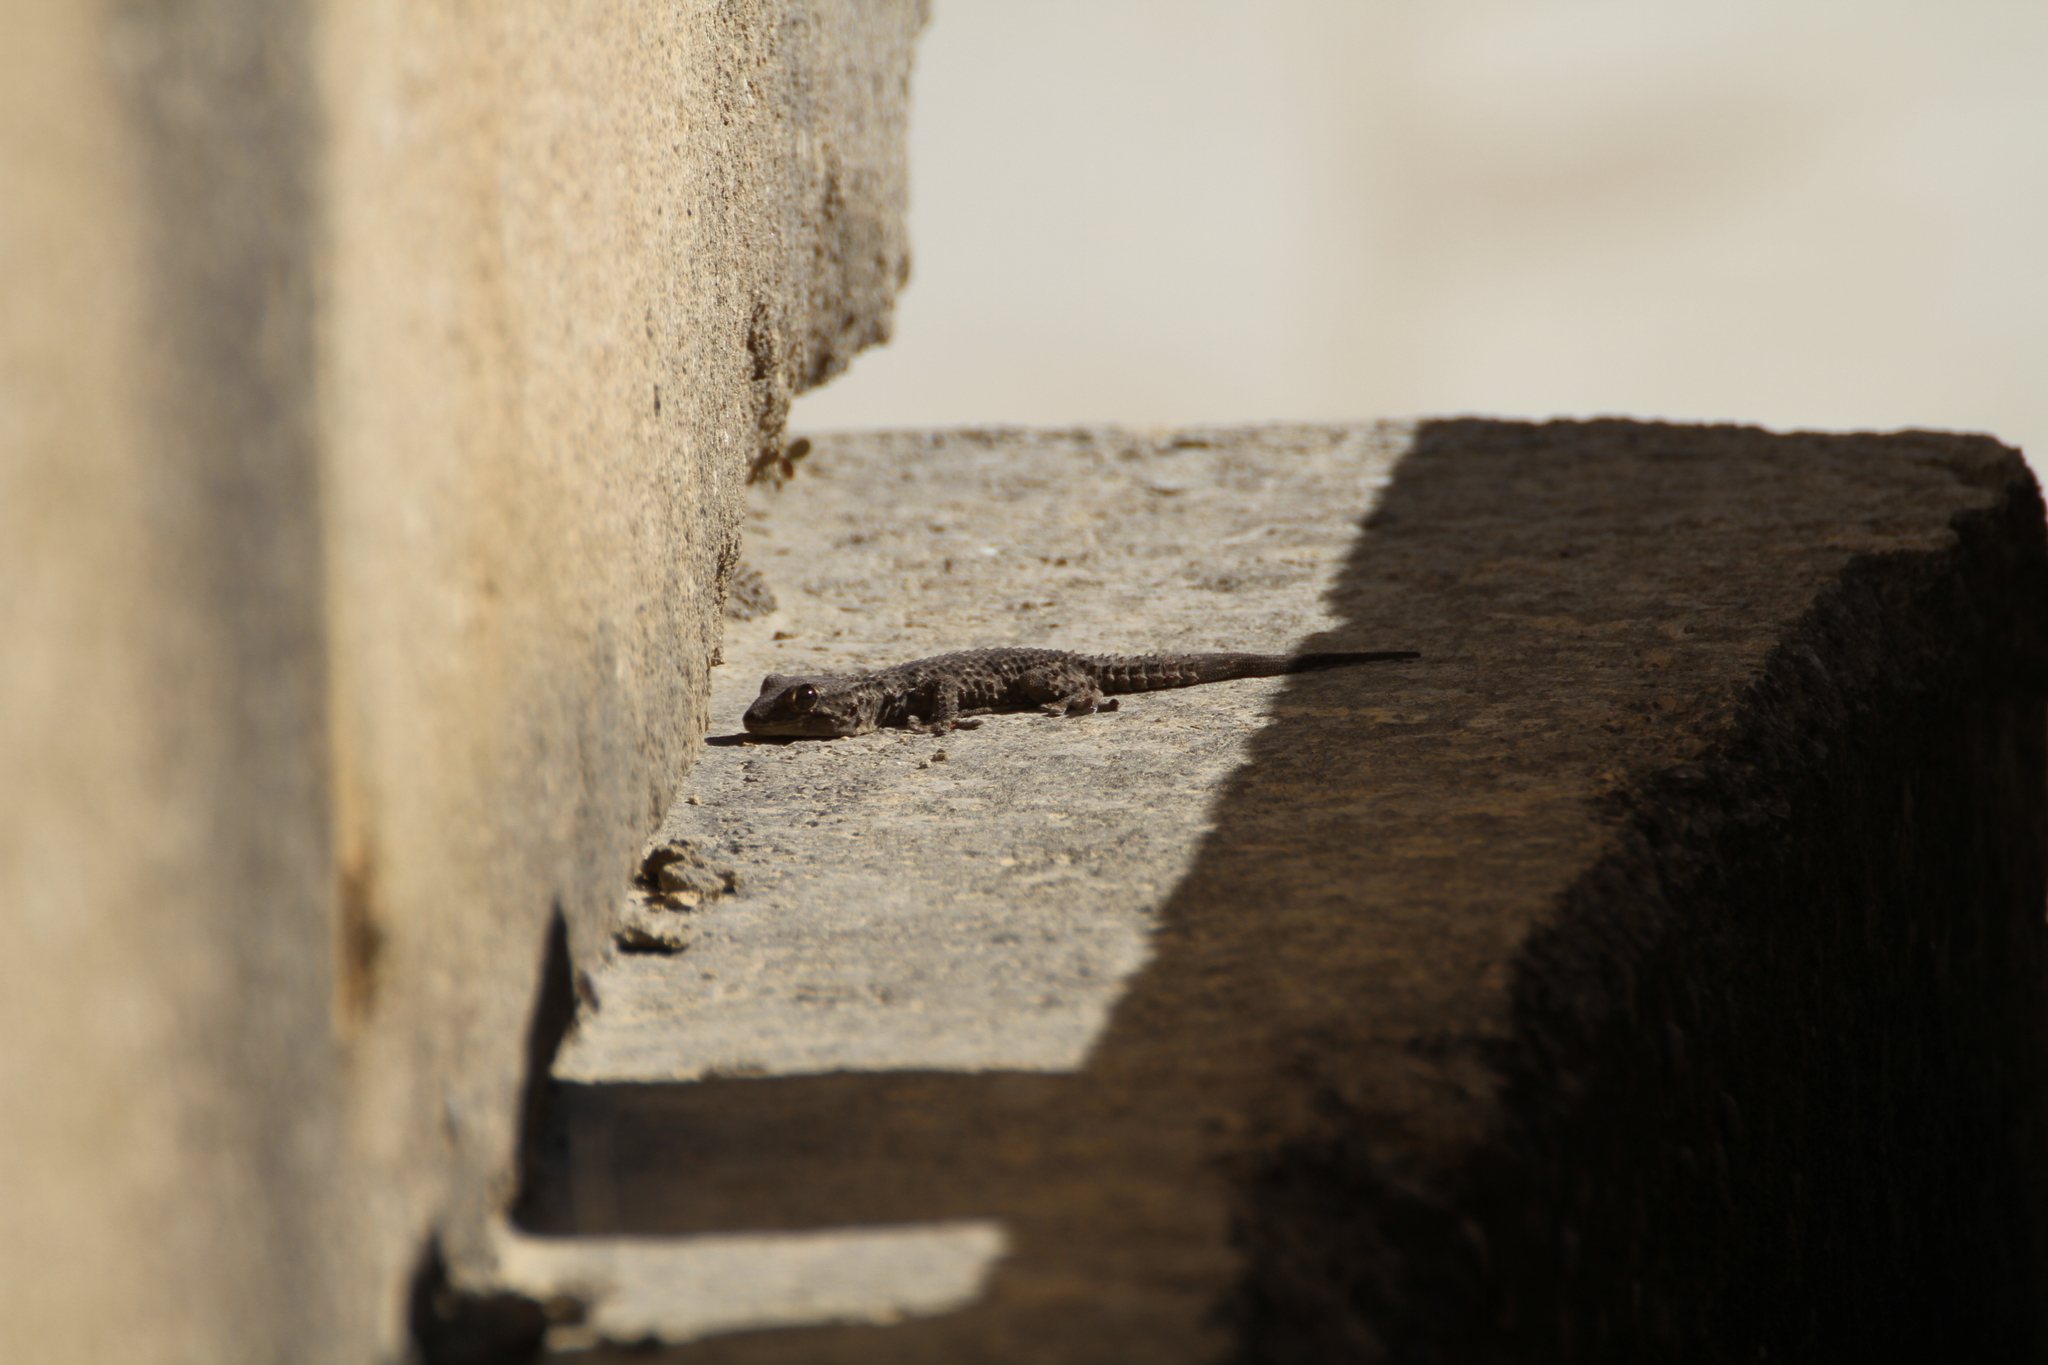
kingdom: Animalia
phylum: Chordata
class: Squamata
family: Phyllodactylidae
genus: Tarentola
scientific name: Tarentola mauritanica
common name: Moorish gecko
